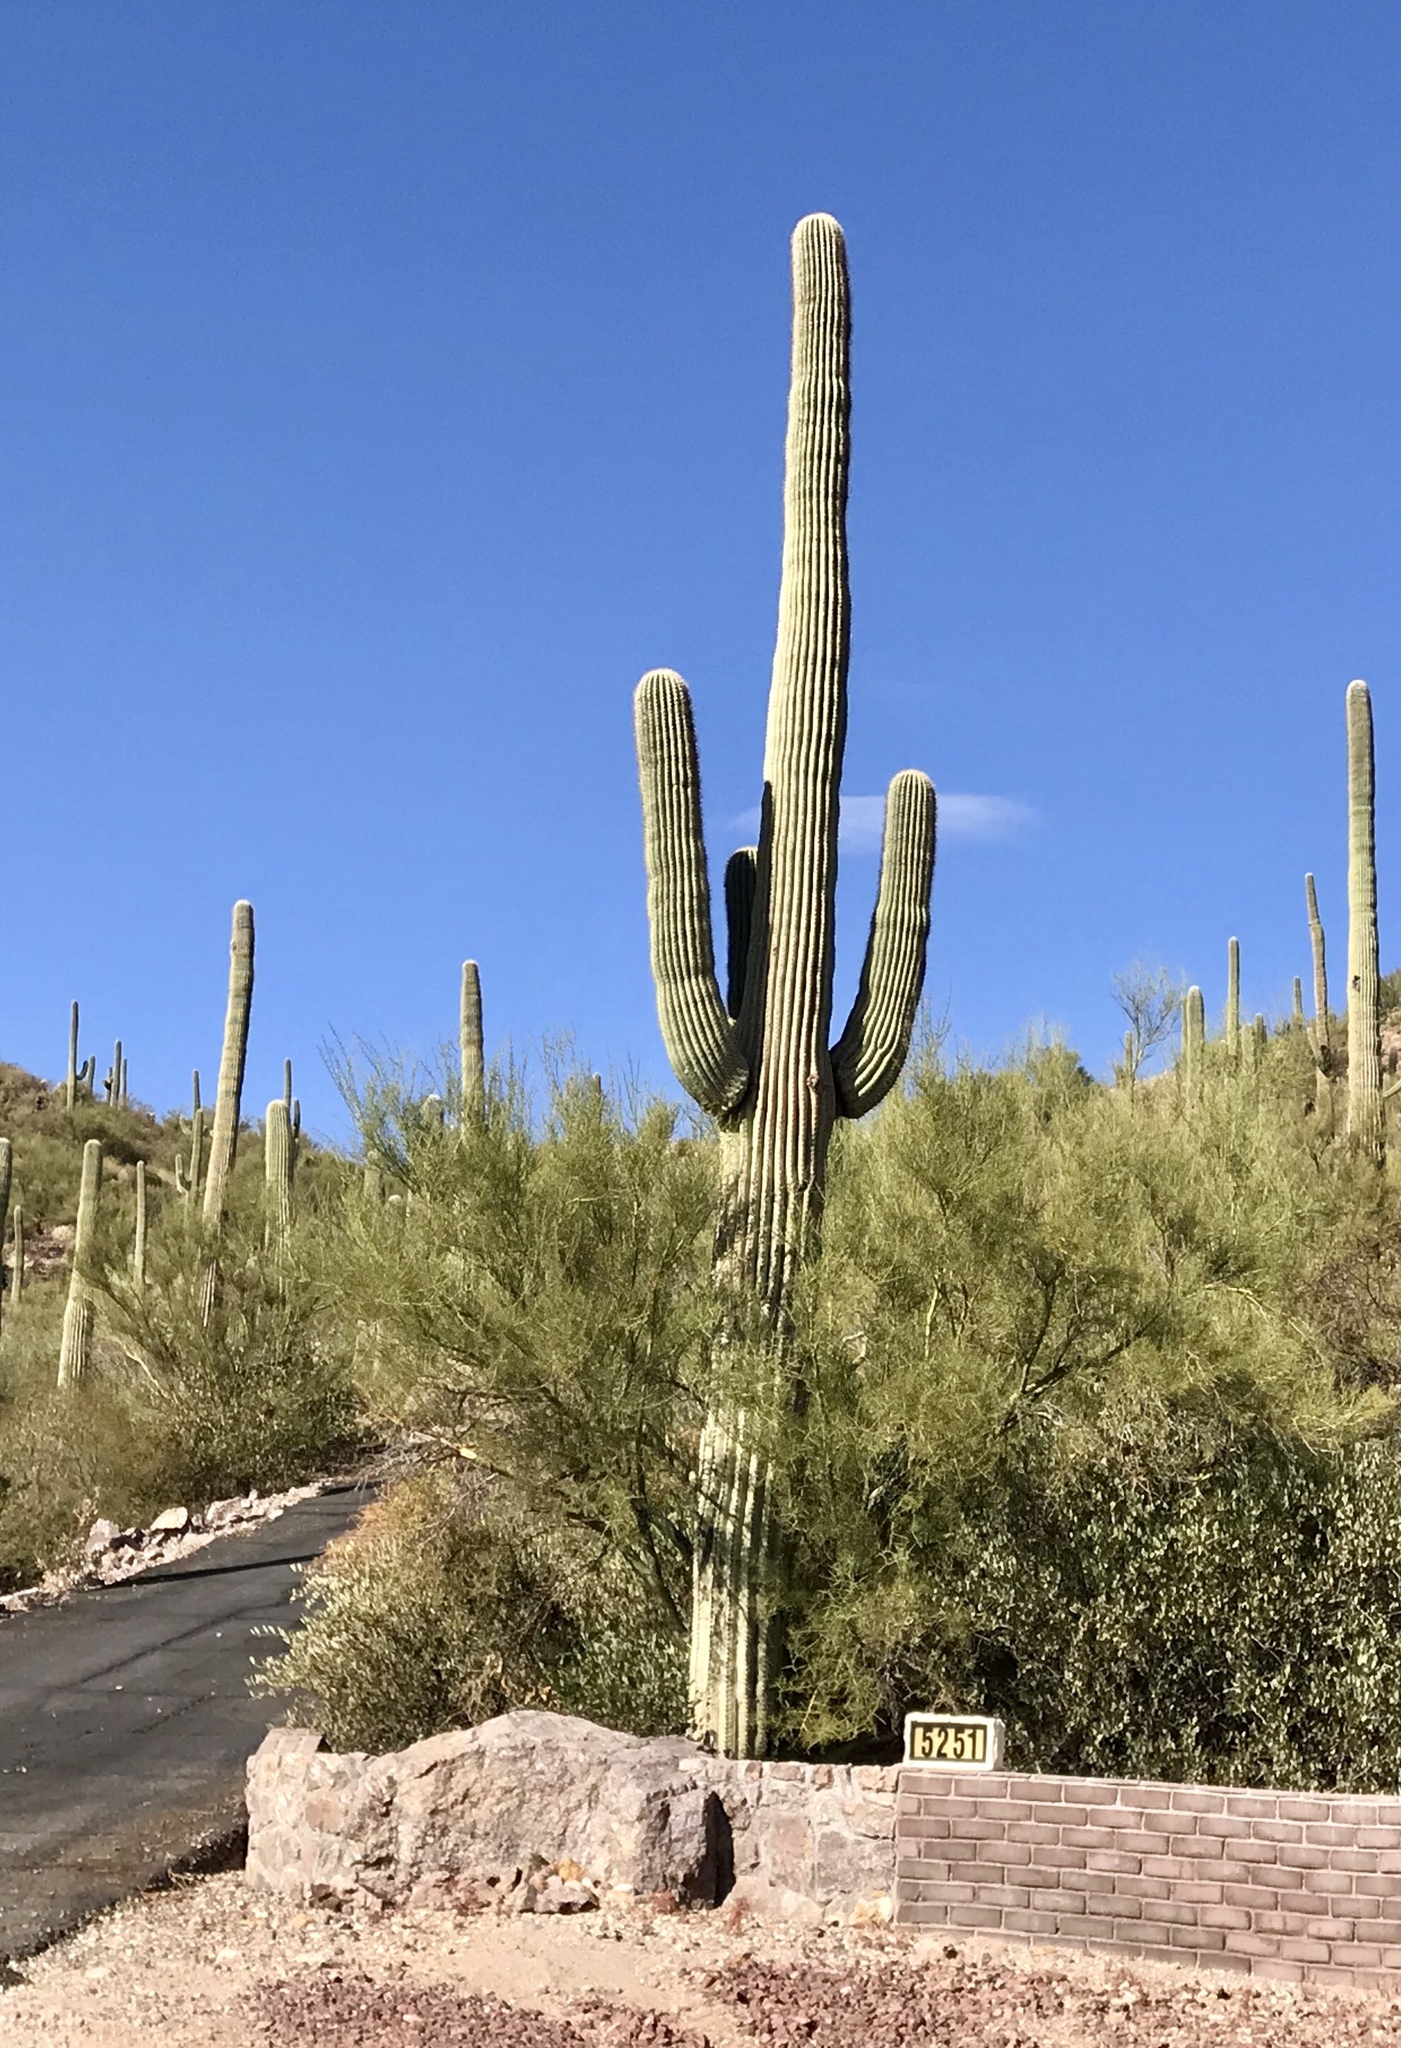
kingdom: Plantae
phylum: Tracheophyta
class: Magnoliopsida
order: Caryophyllales
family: Cactaceae
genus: Carnegiea
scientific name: Carnegiea gigantea
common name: Saguaro
